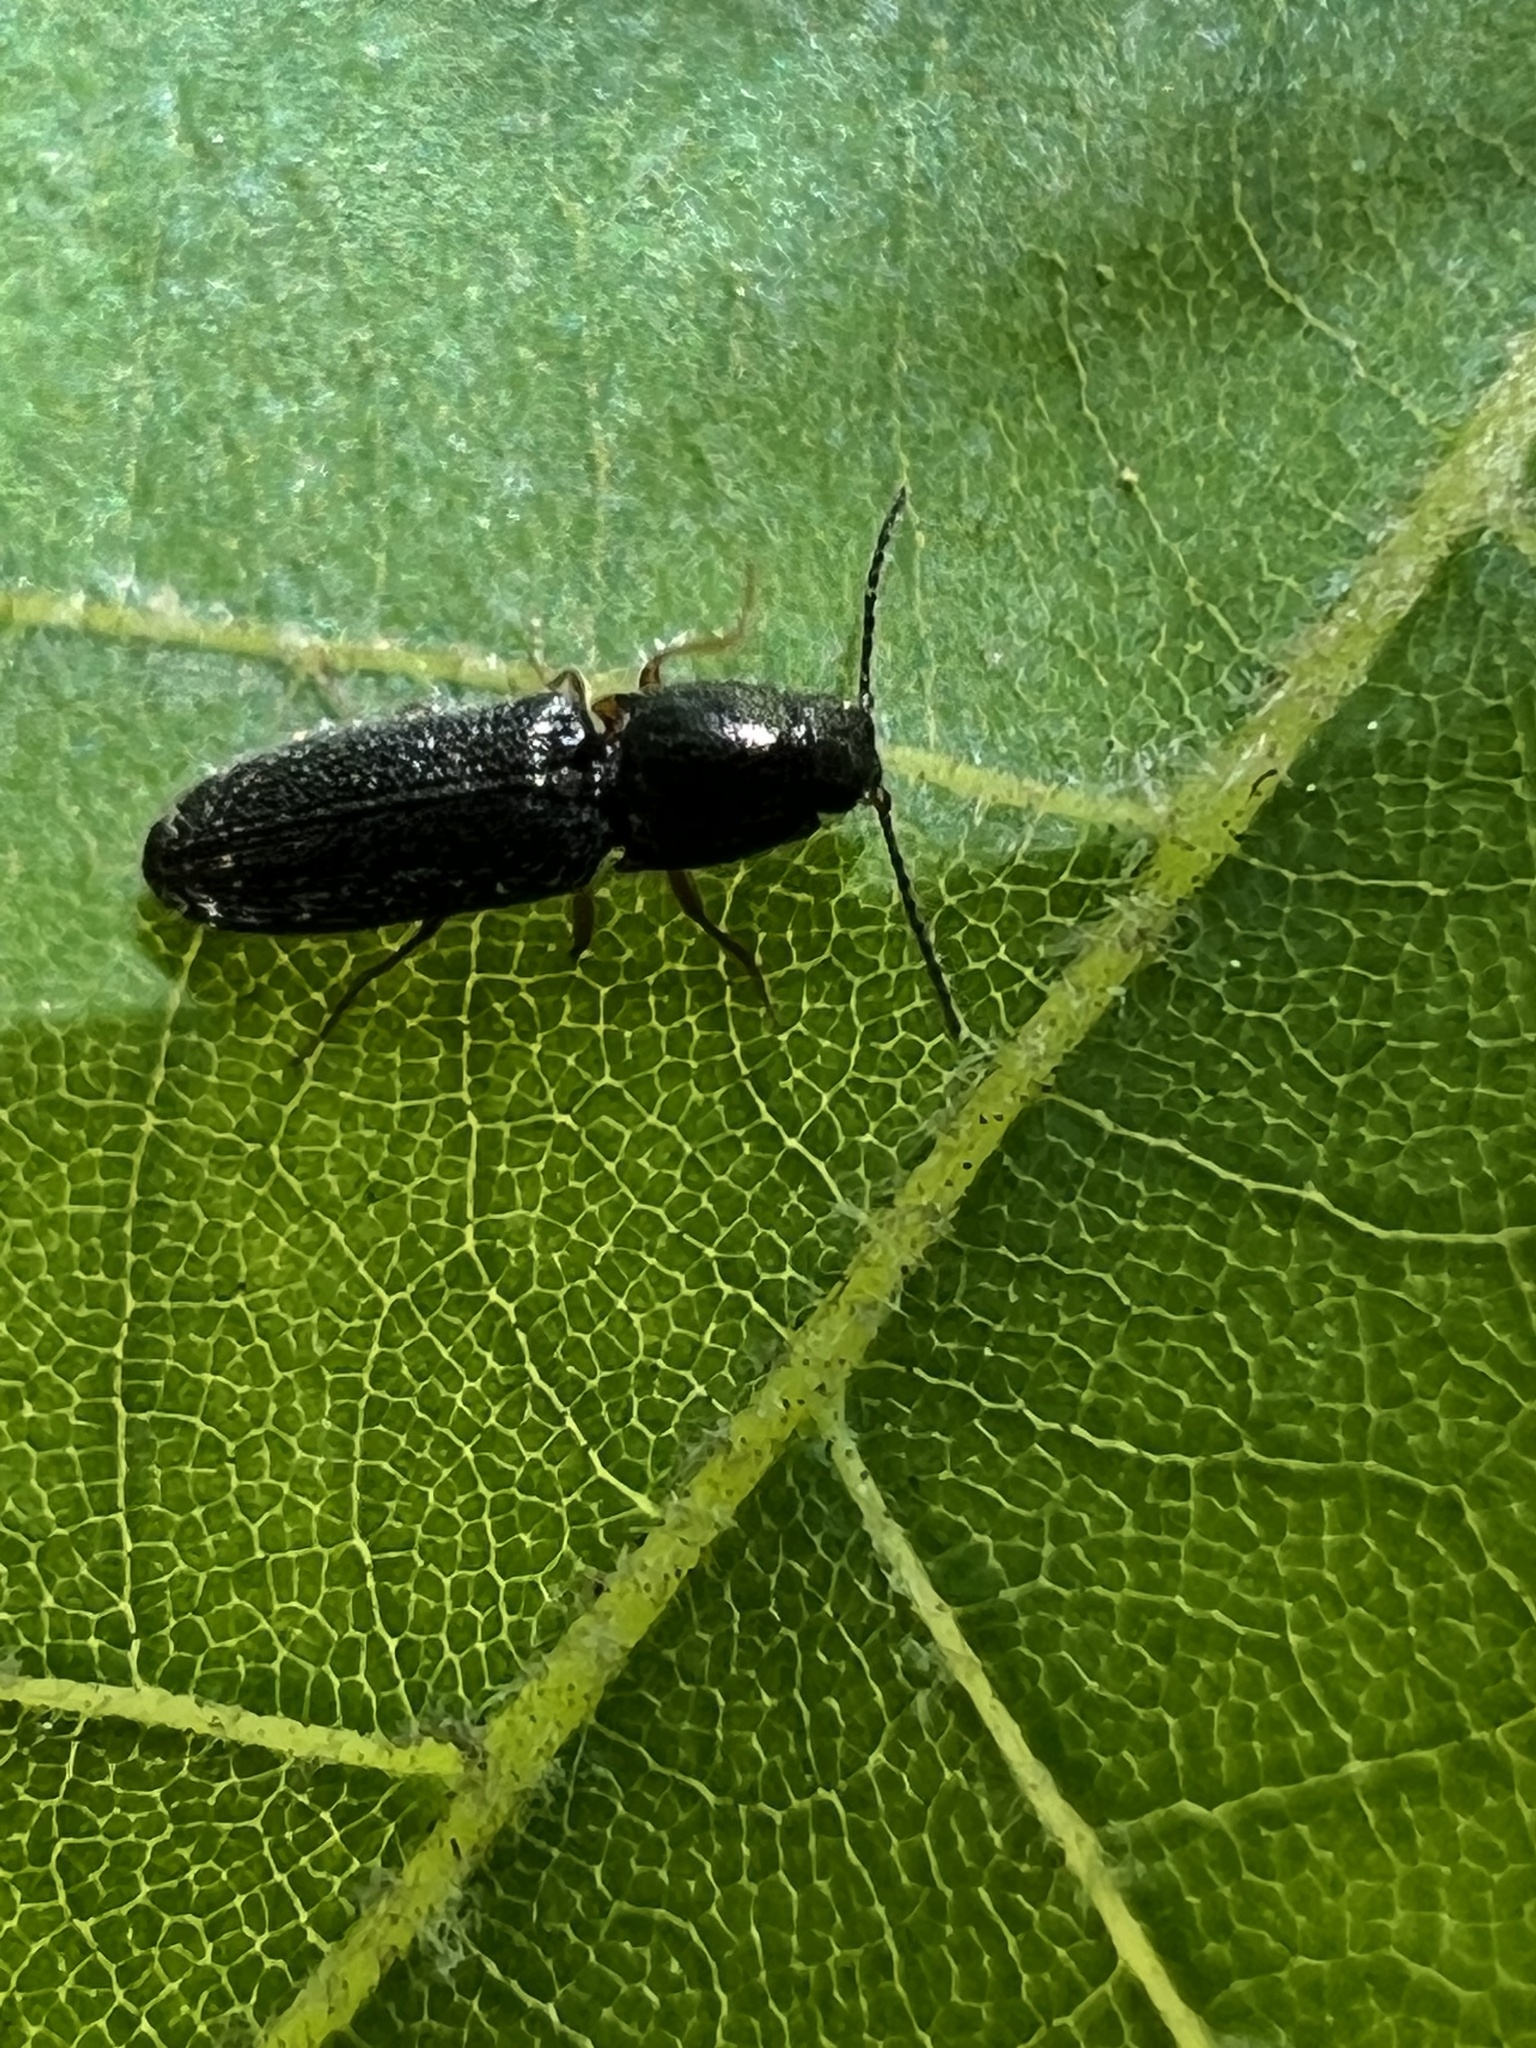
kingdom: Animalia
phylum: Arthropoda
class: Insecta
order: Coleoptera
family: Elateridae
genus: Limonius
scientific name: Limonius basilaris
